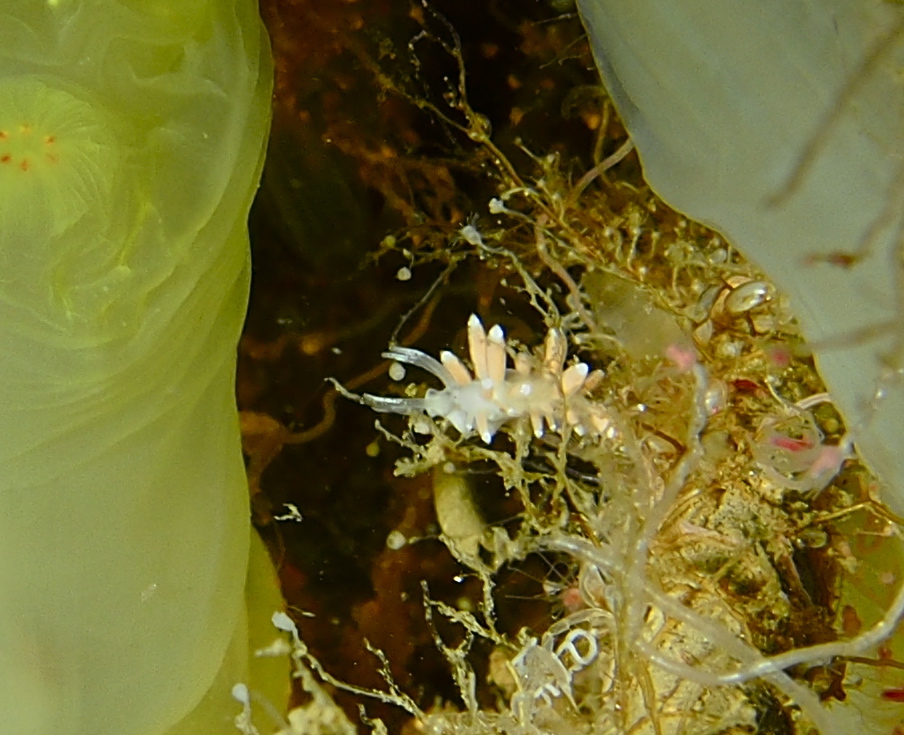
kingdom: Animalia
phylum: Mollusca
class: Gastropoda
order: Nudibranchia
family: Coryphellidae
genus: Coryphella
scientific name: Coryphella gracilis
